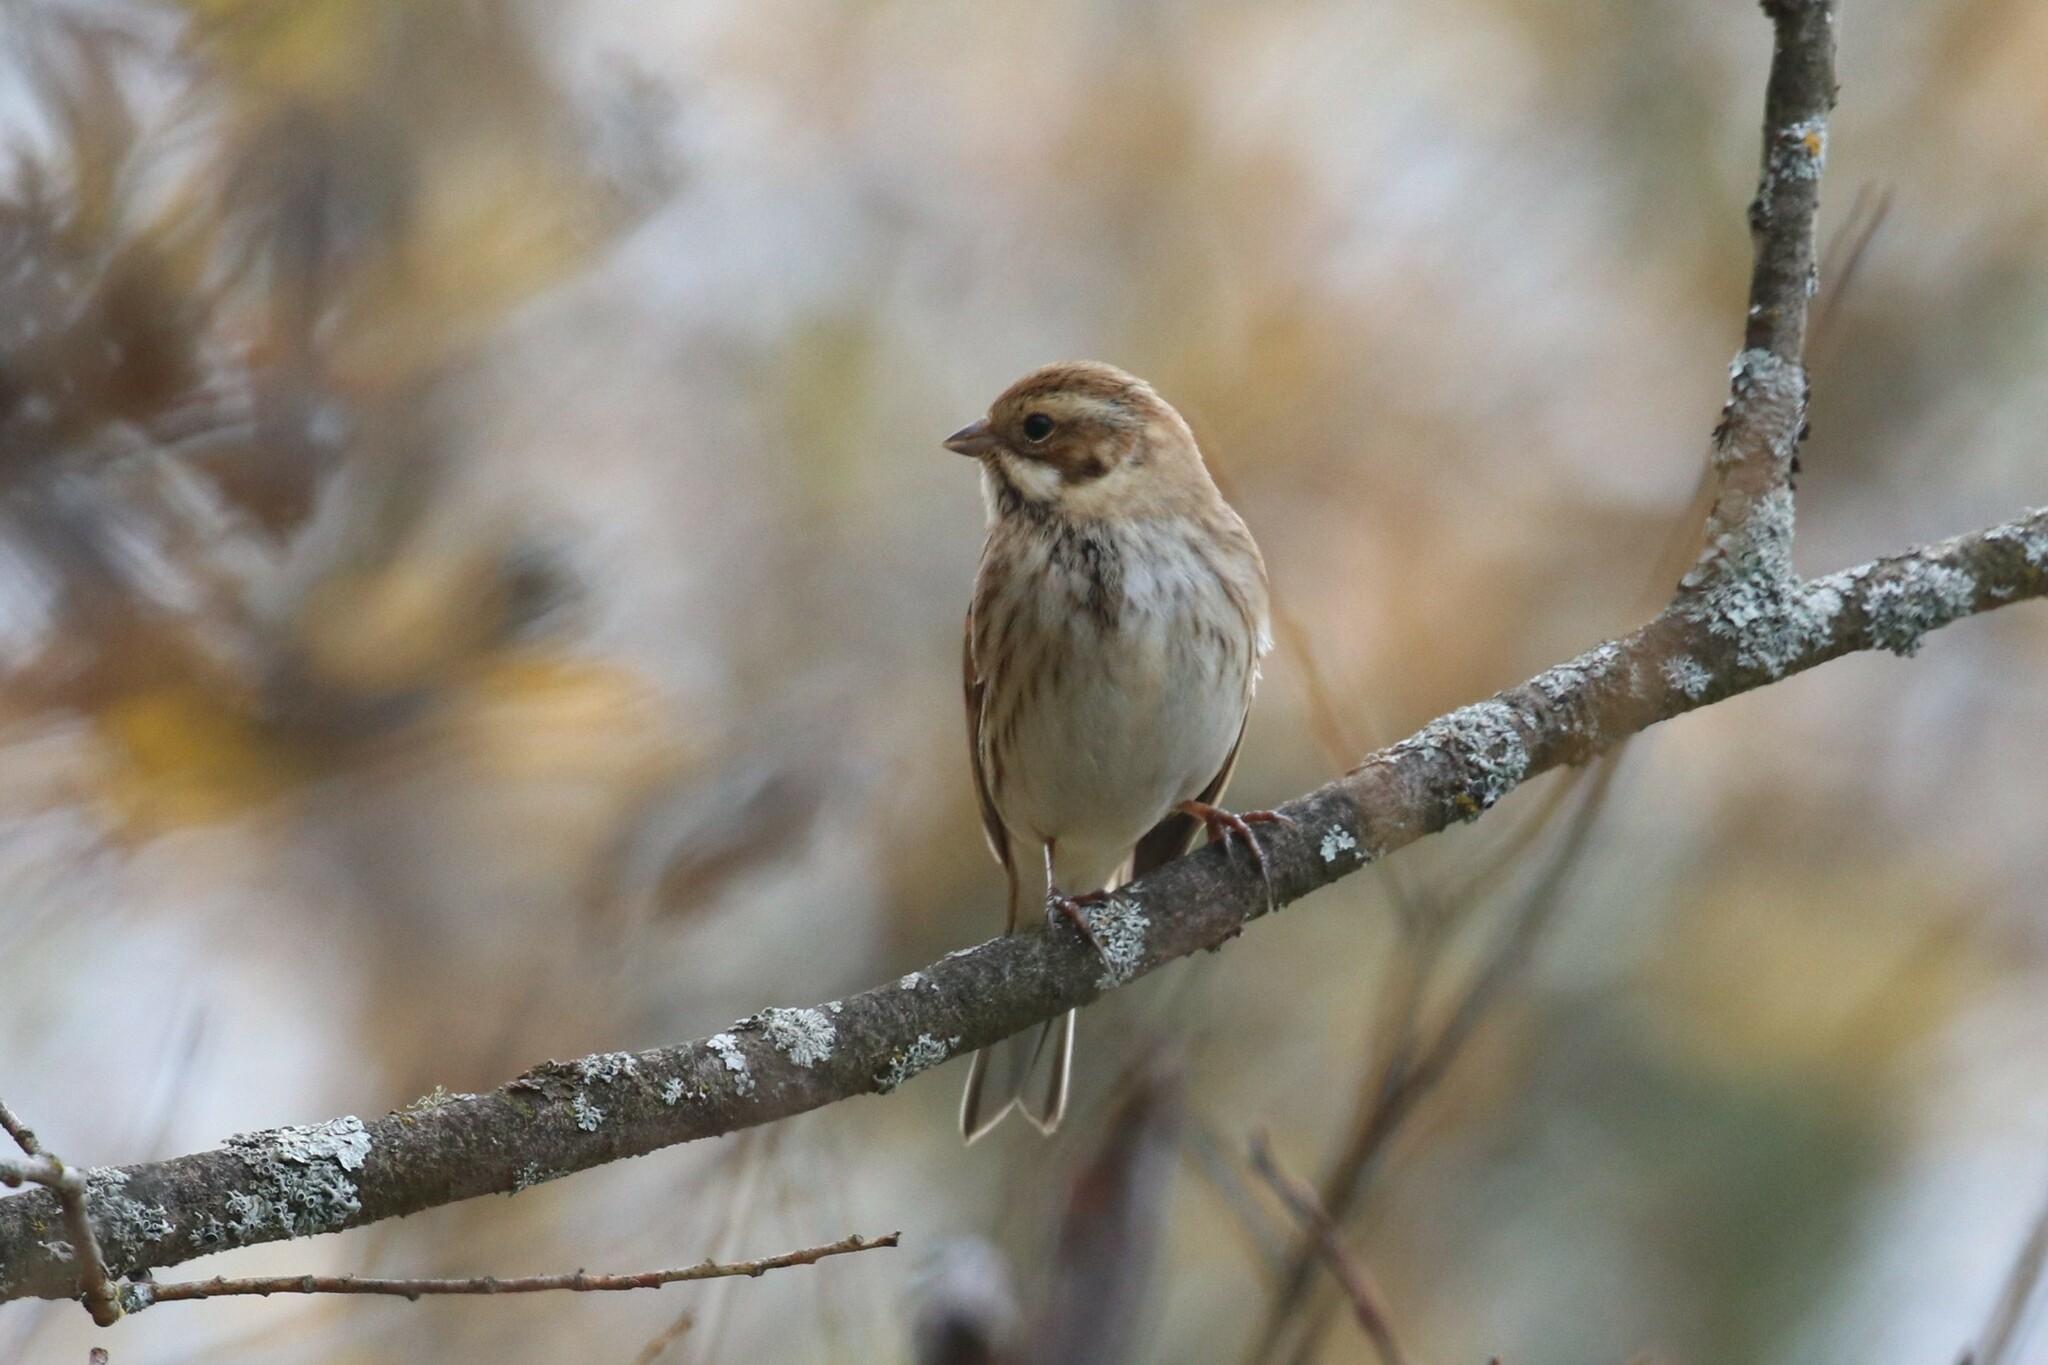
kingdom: Animalia
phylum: Chordata
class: Aves
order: Passeriformes
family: Emberizidae
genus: Emberiza
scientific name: Emberiza schoeniclus
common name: Reed bunting
